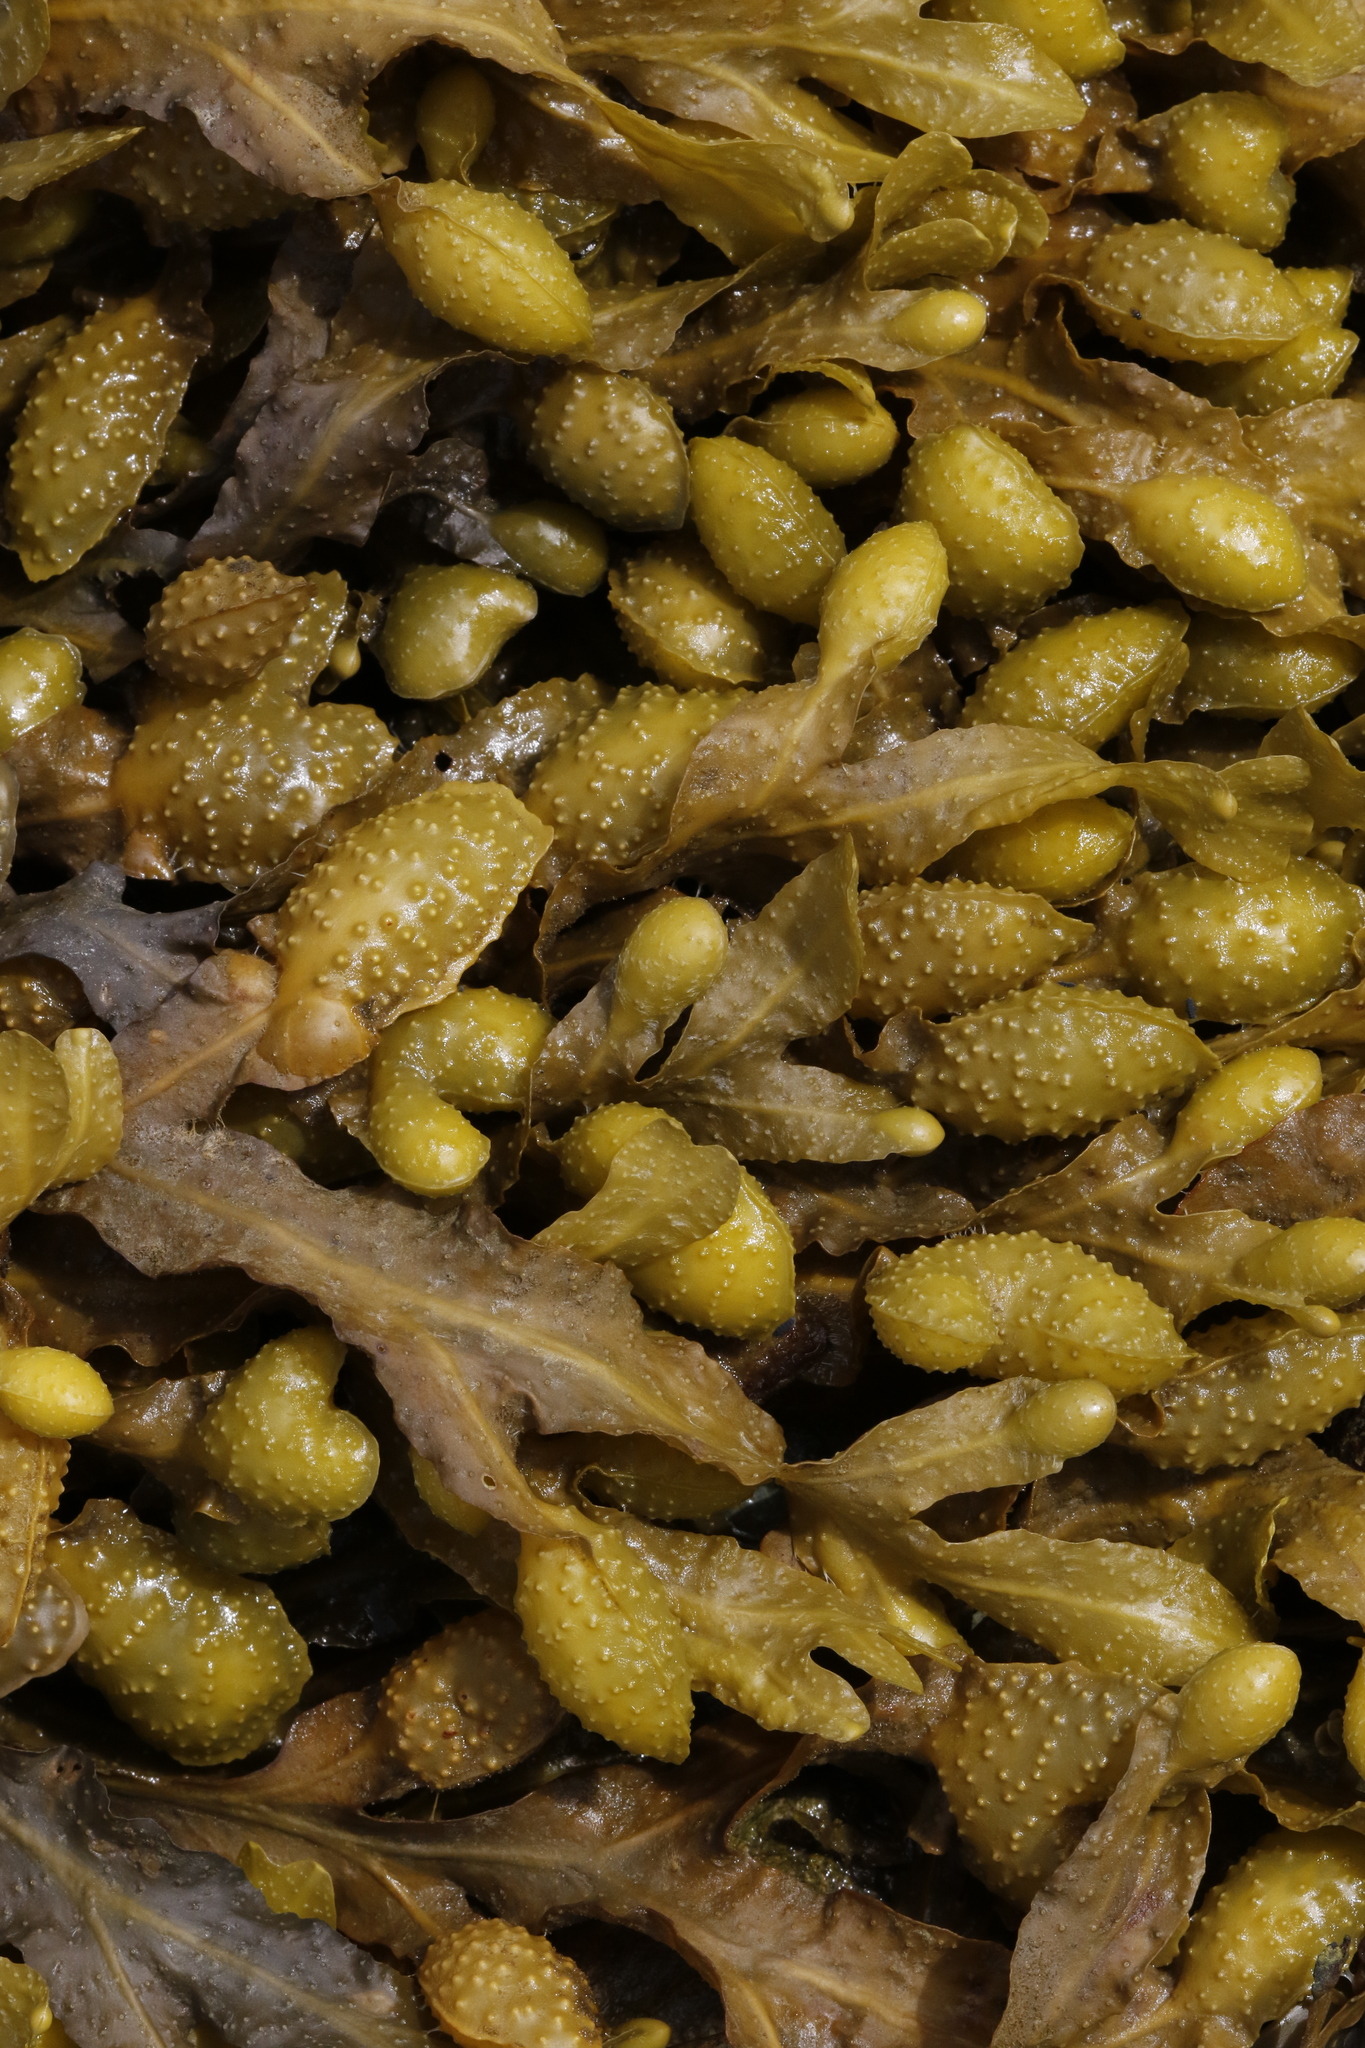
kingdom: Chromista
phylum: Ochrophyta
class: Phaeophyceae
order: Fucales
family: Fucaceae
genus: Fucus
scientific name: Fucus vesiculosus
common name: Bladder wrack
